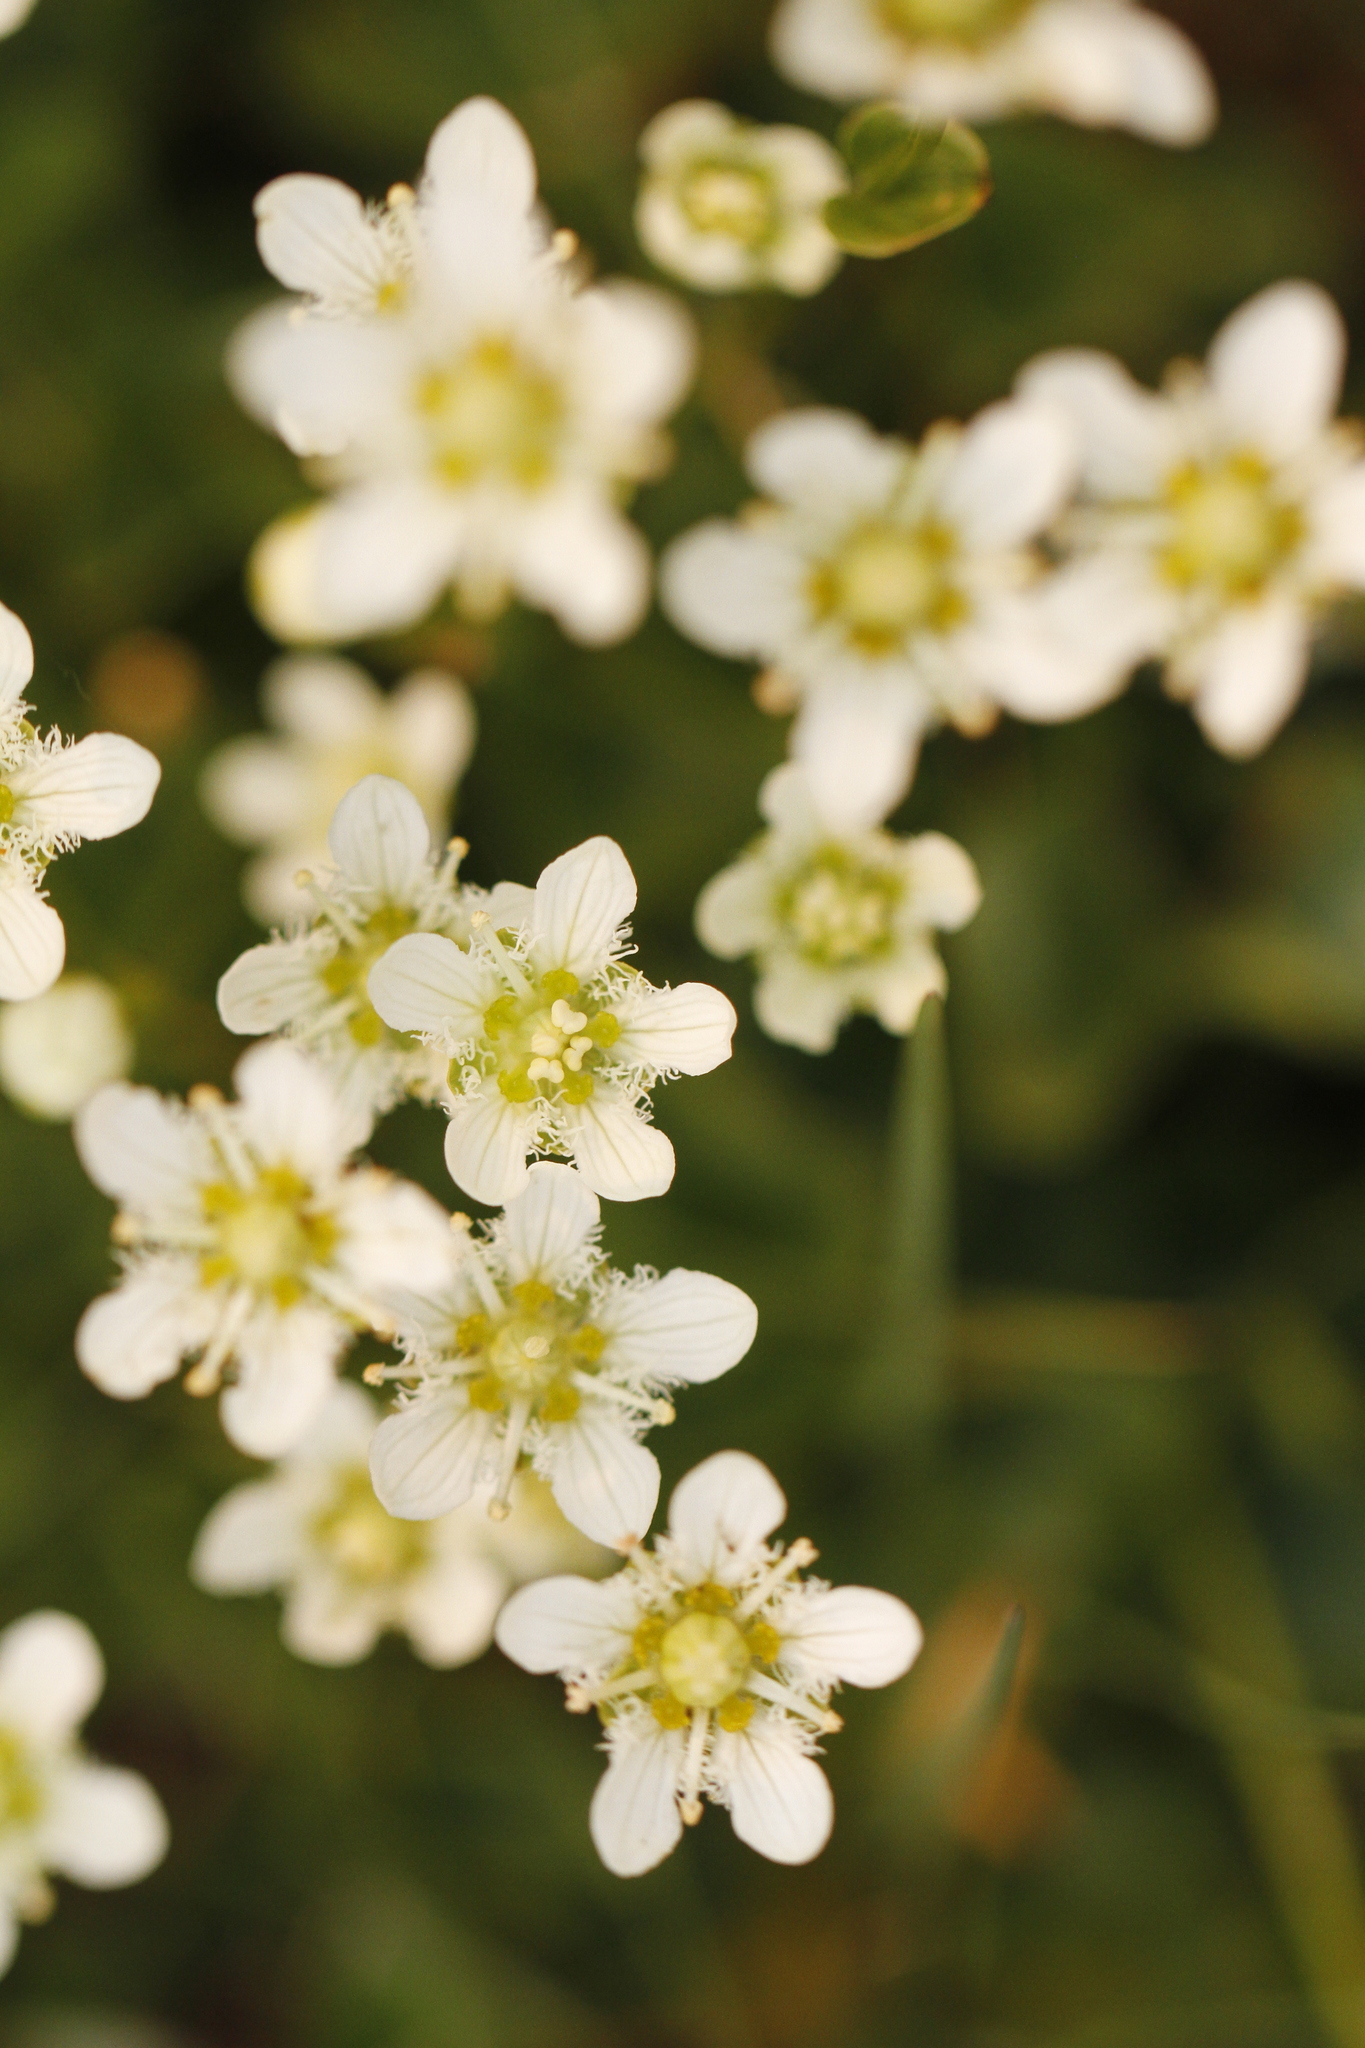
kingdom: Plantae
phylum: Tracheophyta
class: Magnoliopsida
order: Celastrales
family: Parnassiaceae
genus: Parnassia
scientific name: Parnassia fimbriata
